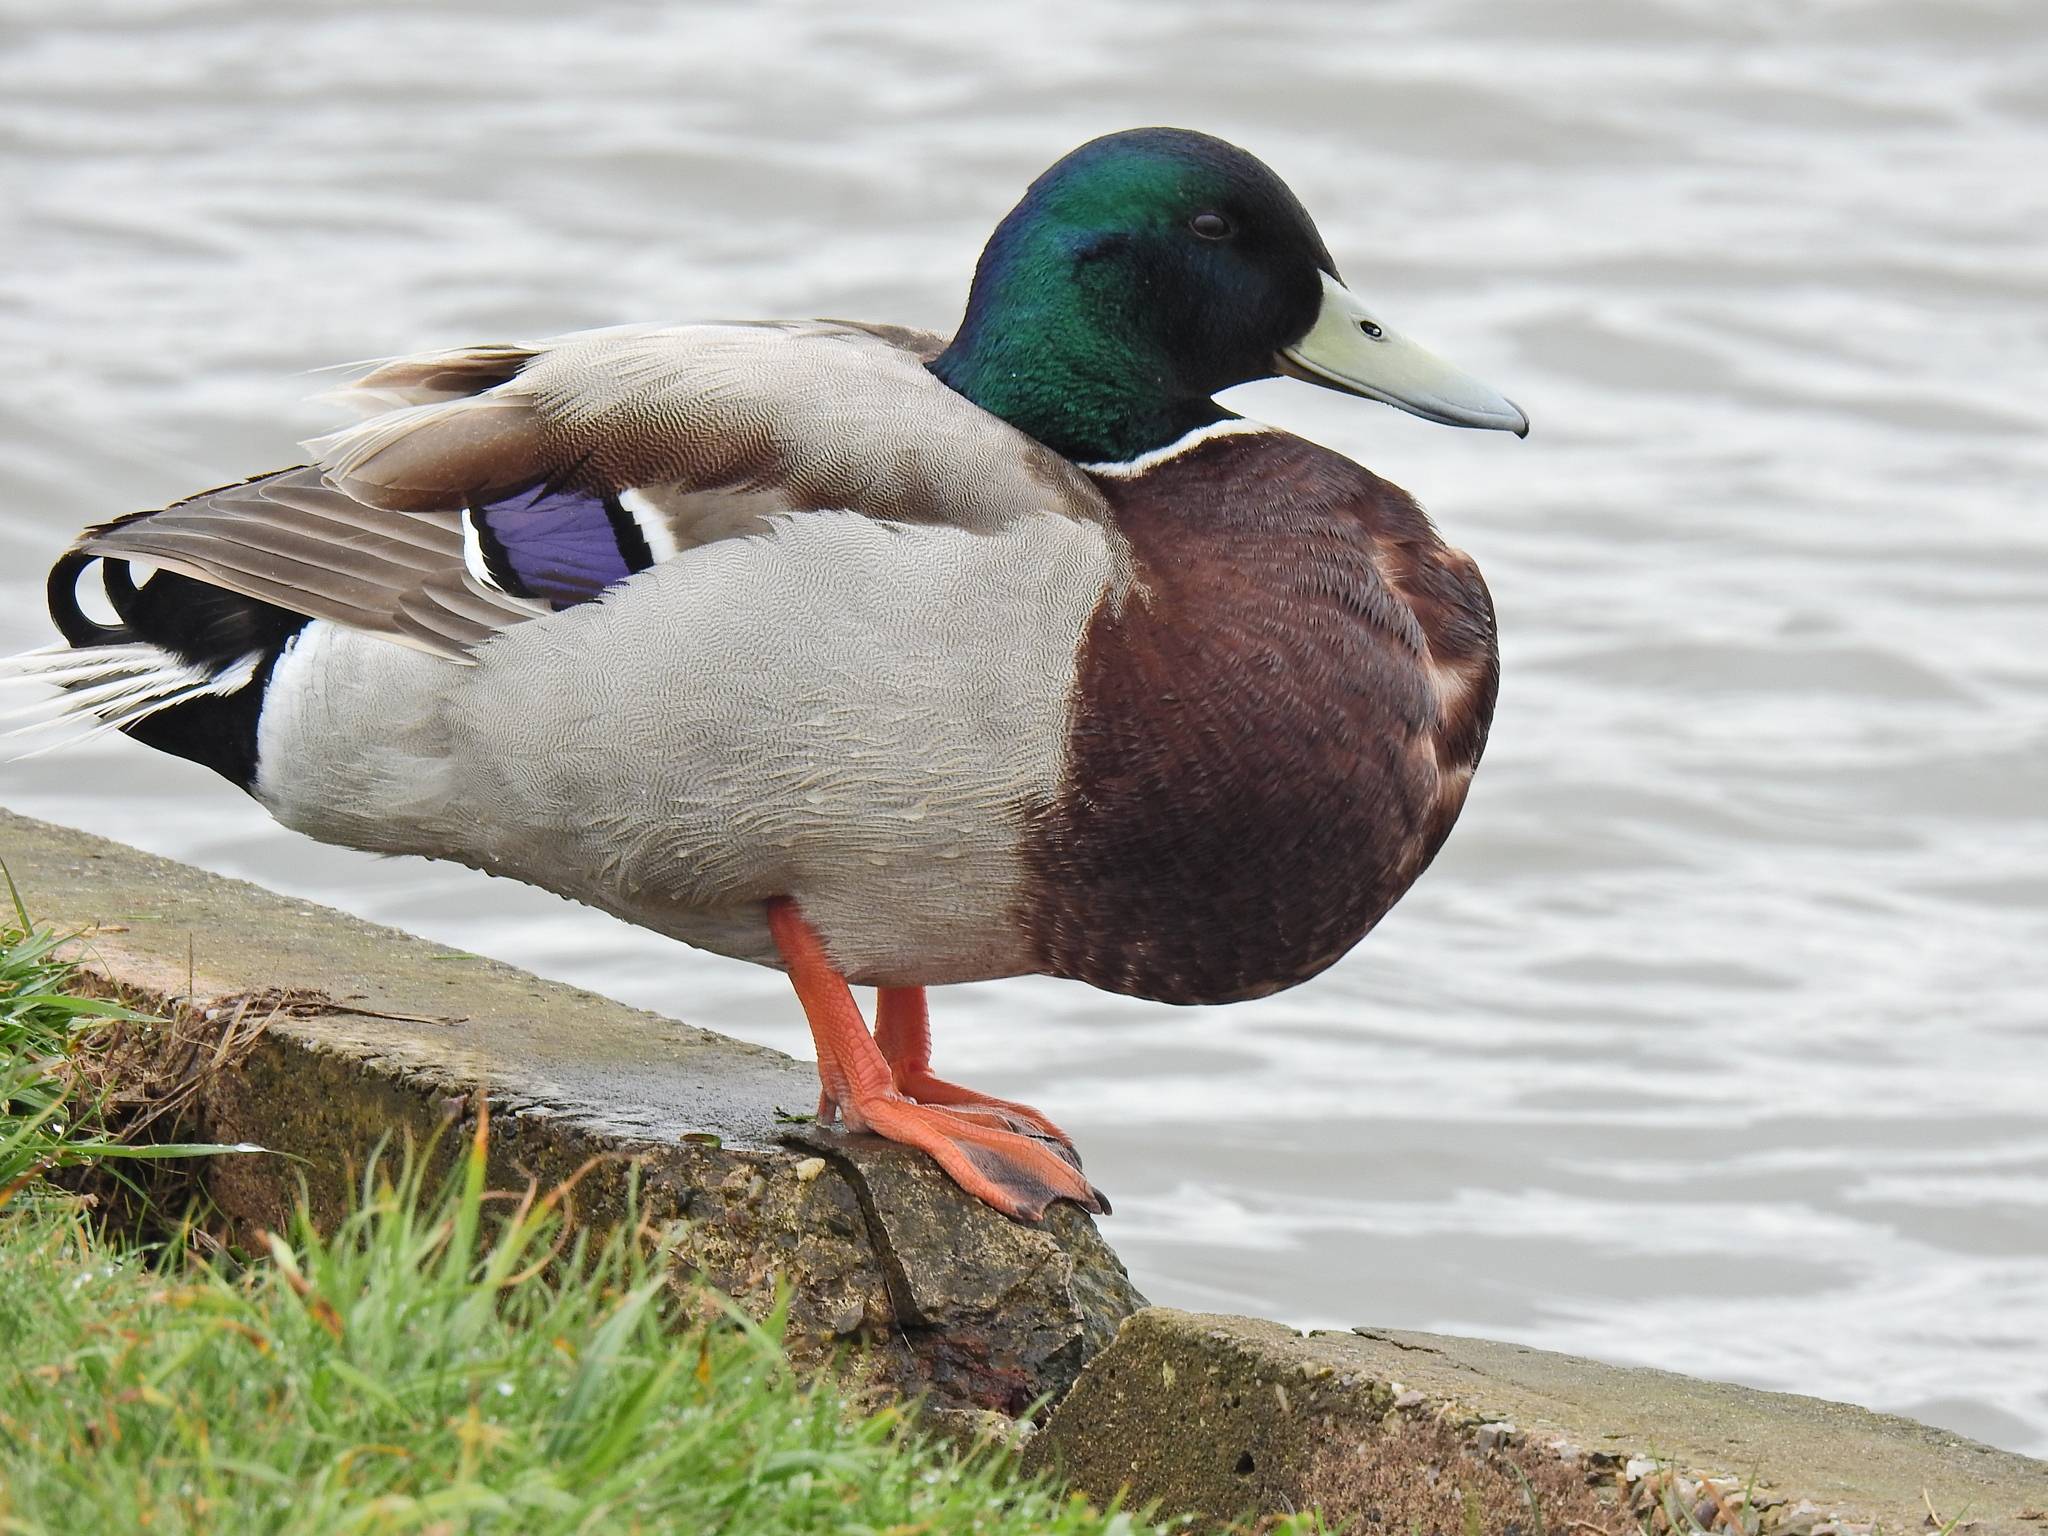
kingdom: Animalia
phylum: Chordata
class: Aves
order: Anseriformes
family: Anatidae
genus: Anas
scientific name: Anas platyrhynchos
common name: Mallard
